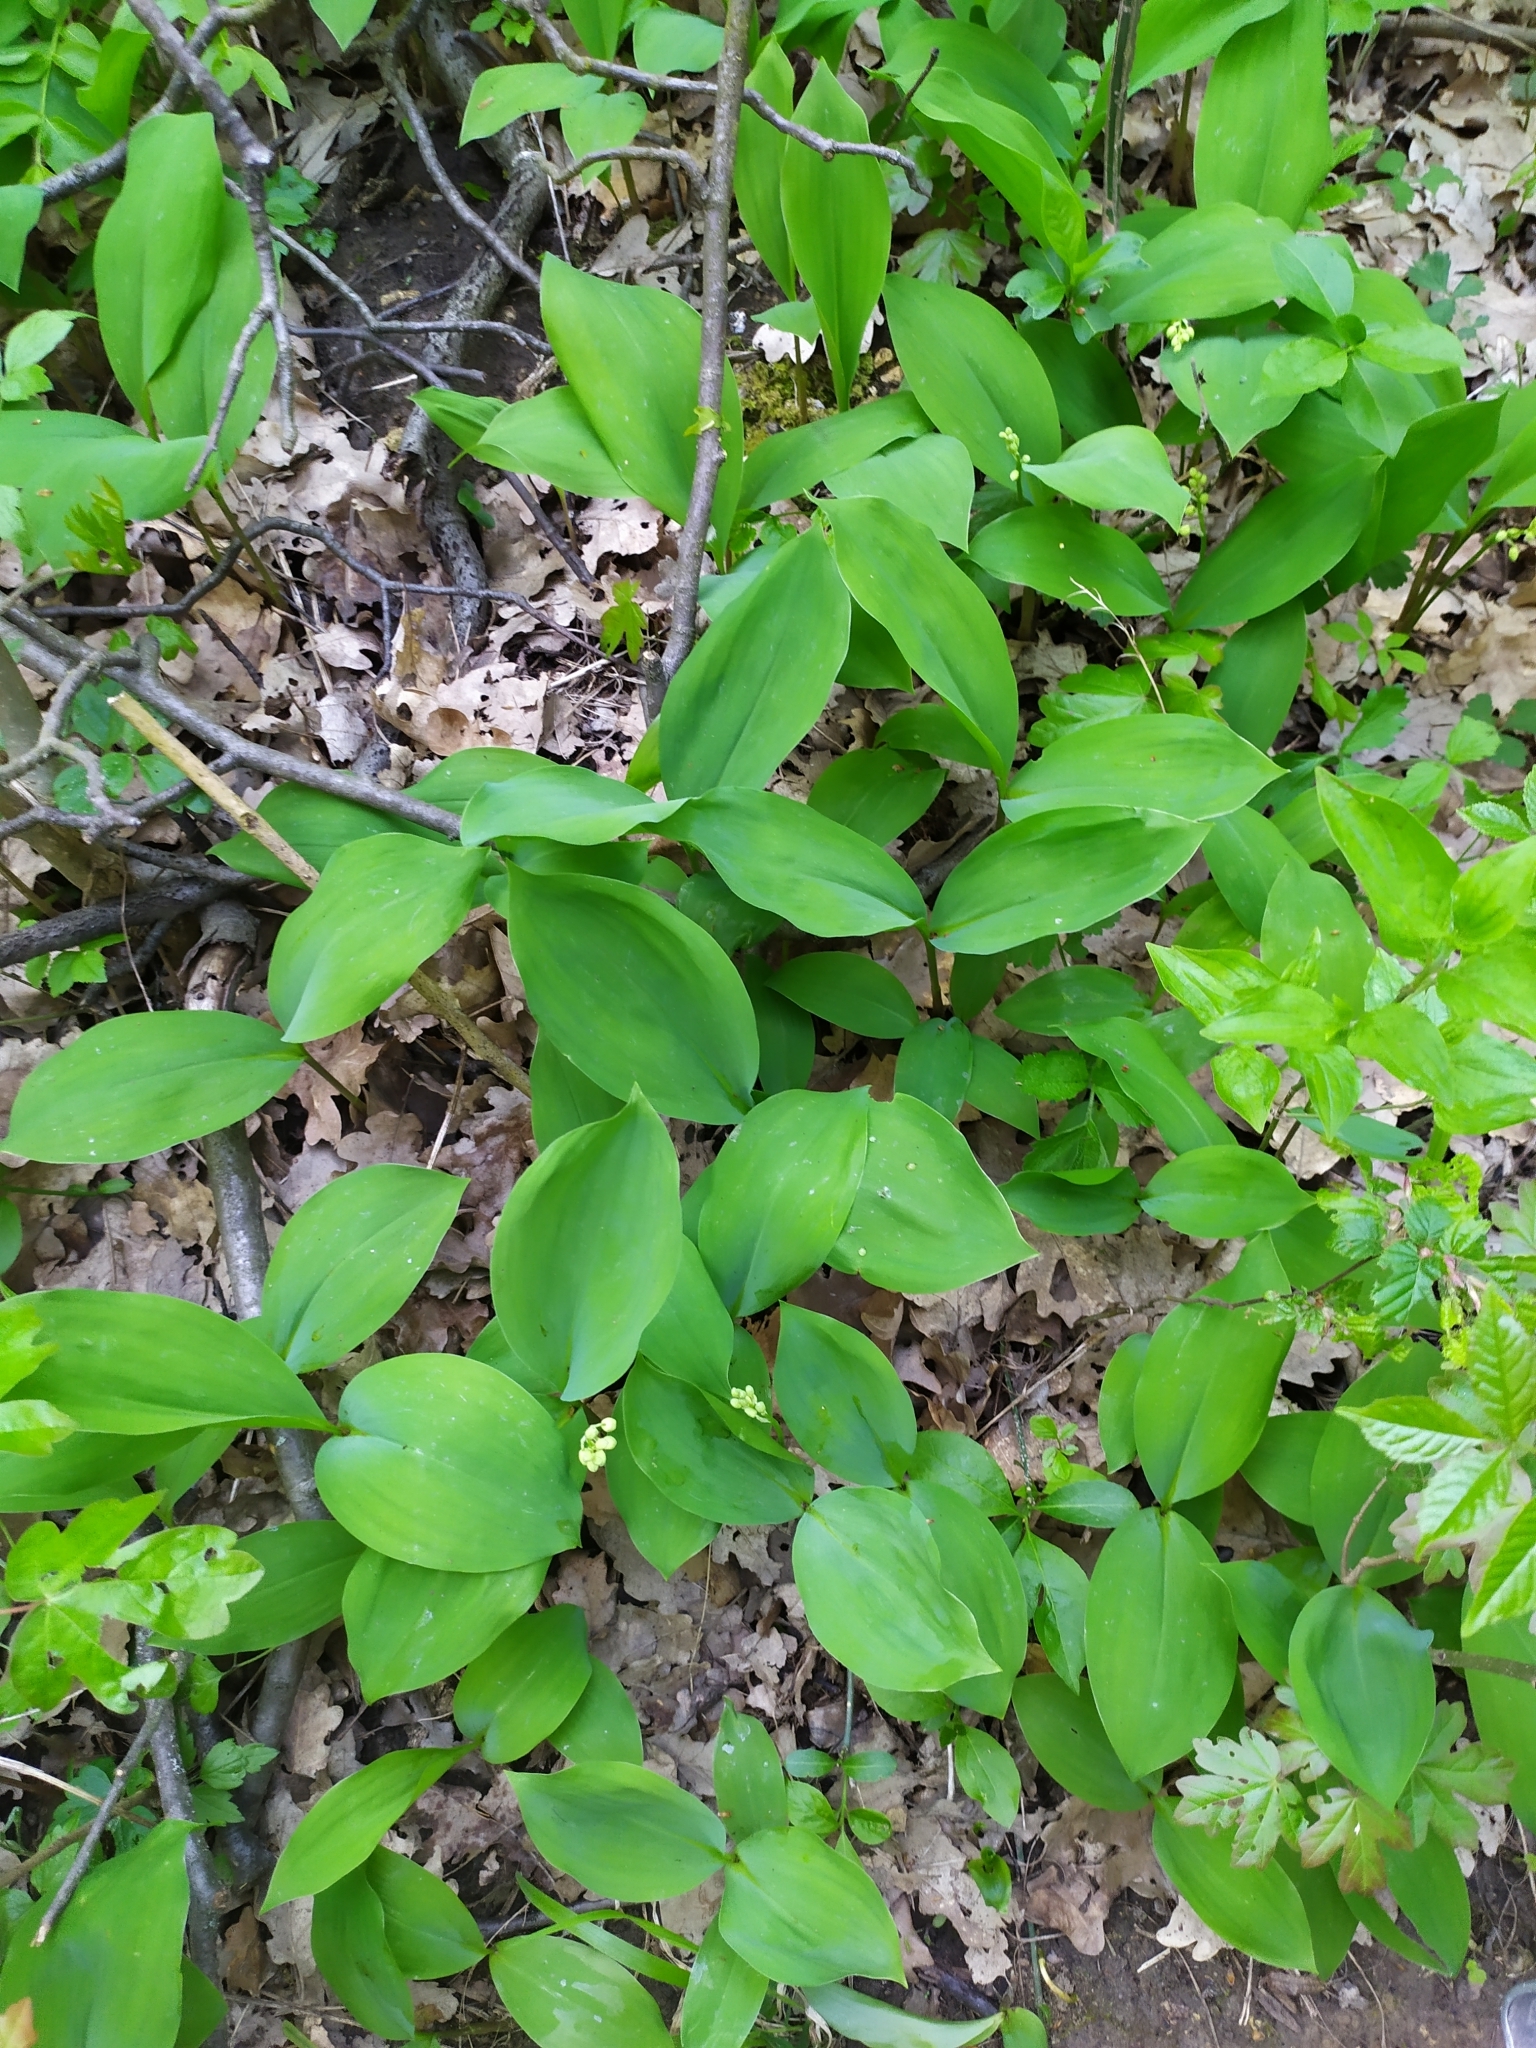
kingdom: Plantae
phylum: Tracheophyta
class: Liliopsida
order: Asparagales
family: Asparagaceae
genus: Convallaria
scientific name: Convallaria majalis
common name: Lily-of-the-valley
